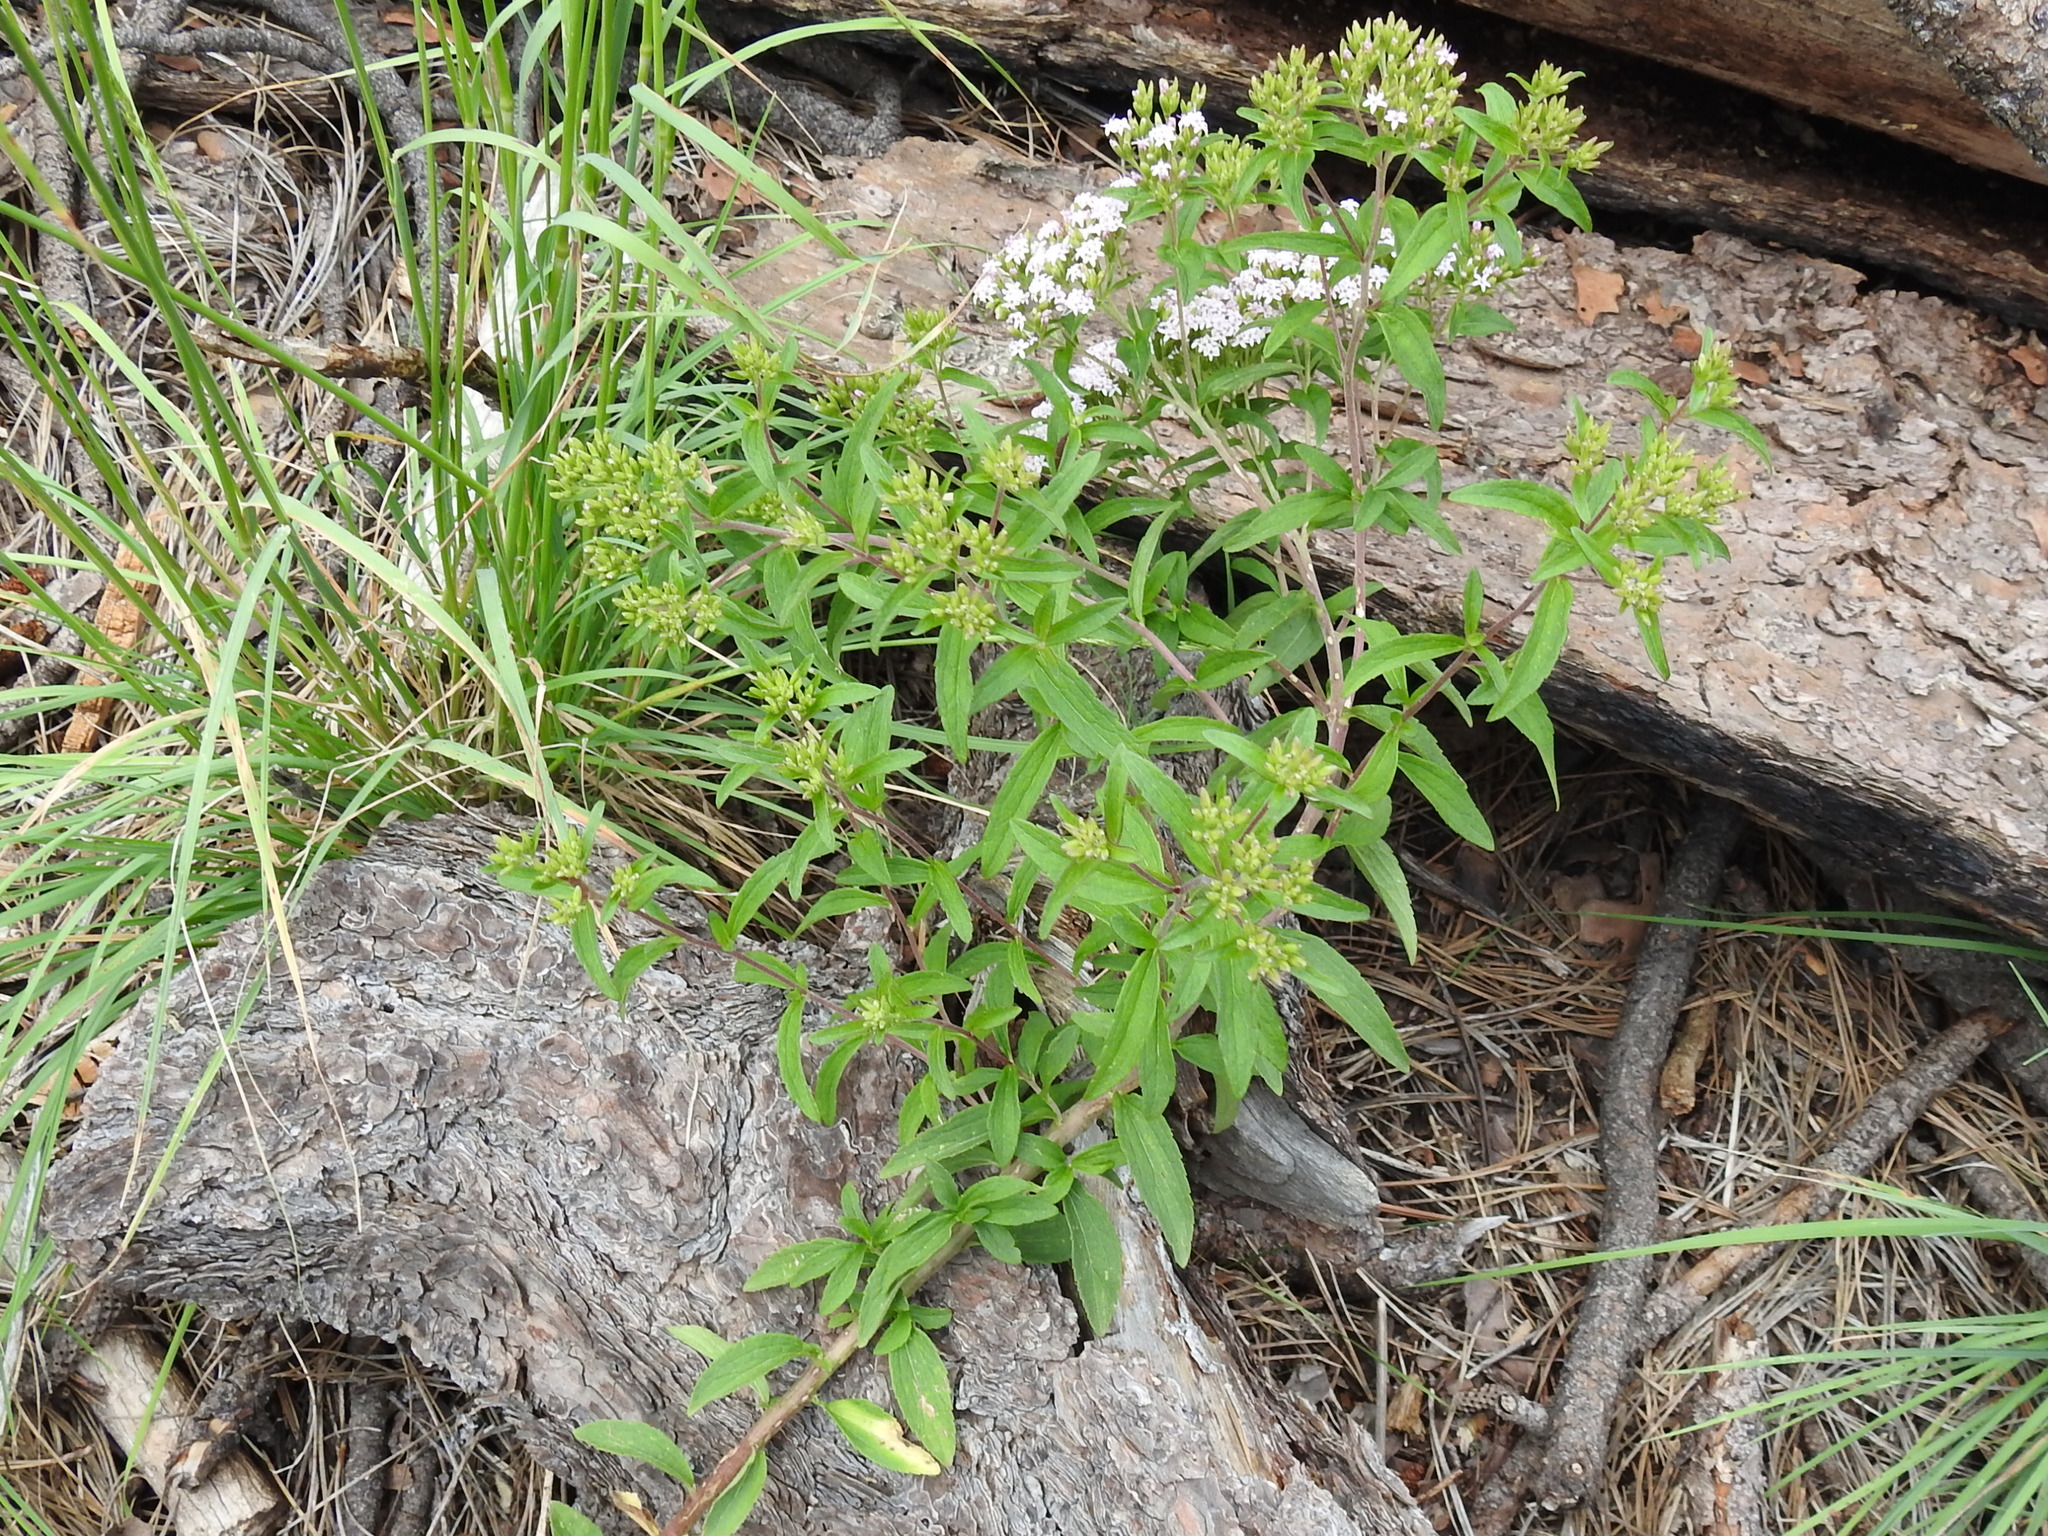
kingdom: Plantae
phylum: Tracheophyta
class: Magnoliopsida
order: Asterales
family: Asteraceae
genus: Stevia
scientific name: Stevia serrata
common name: Sawtooth candyleaf
